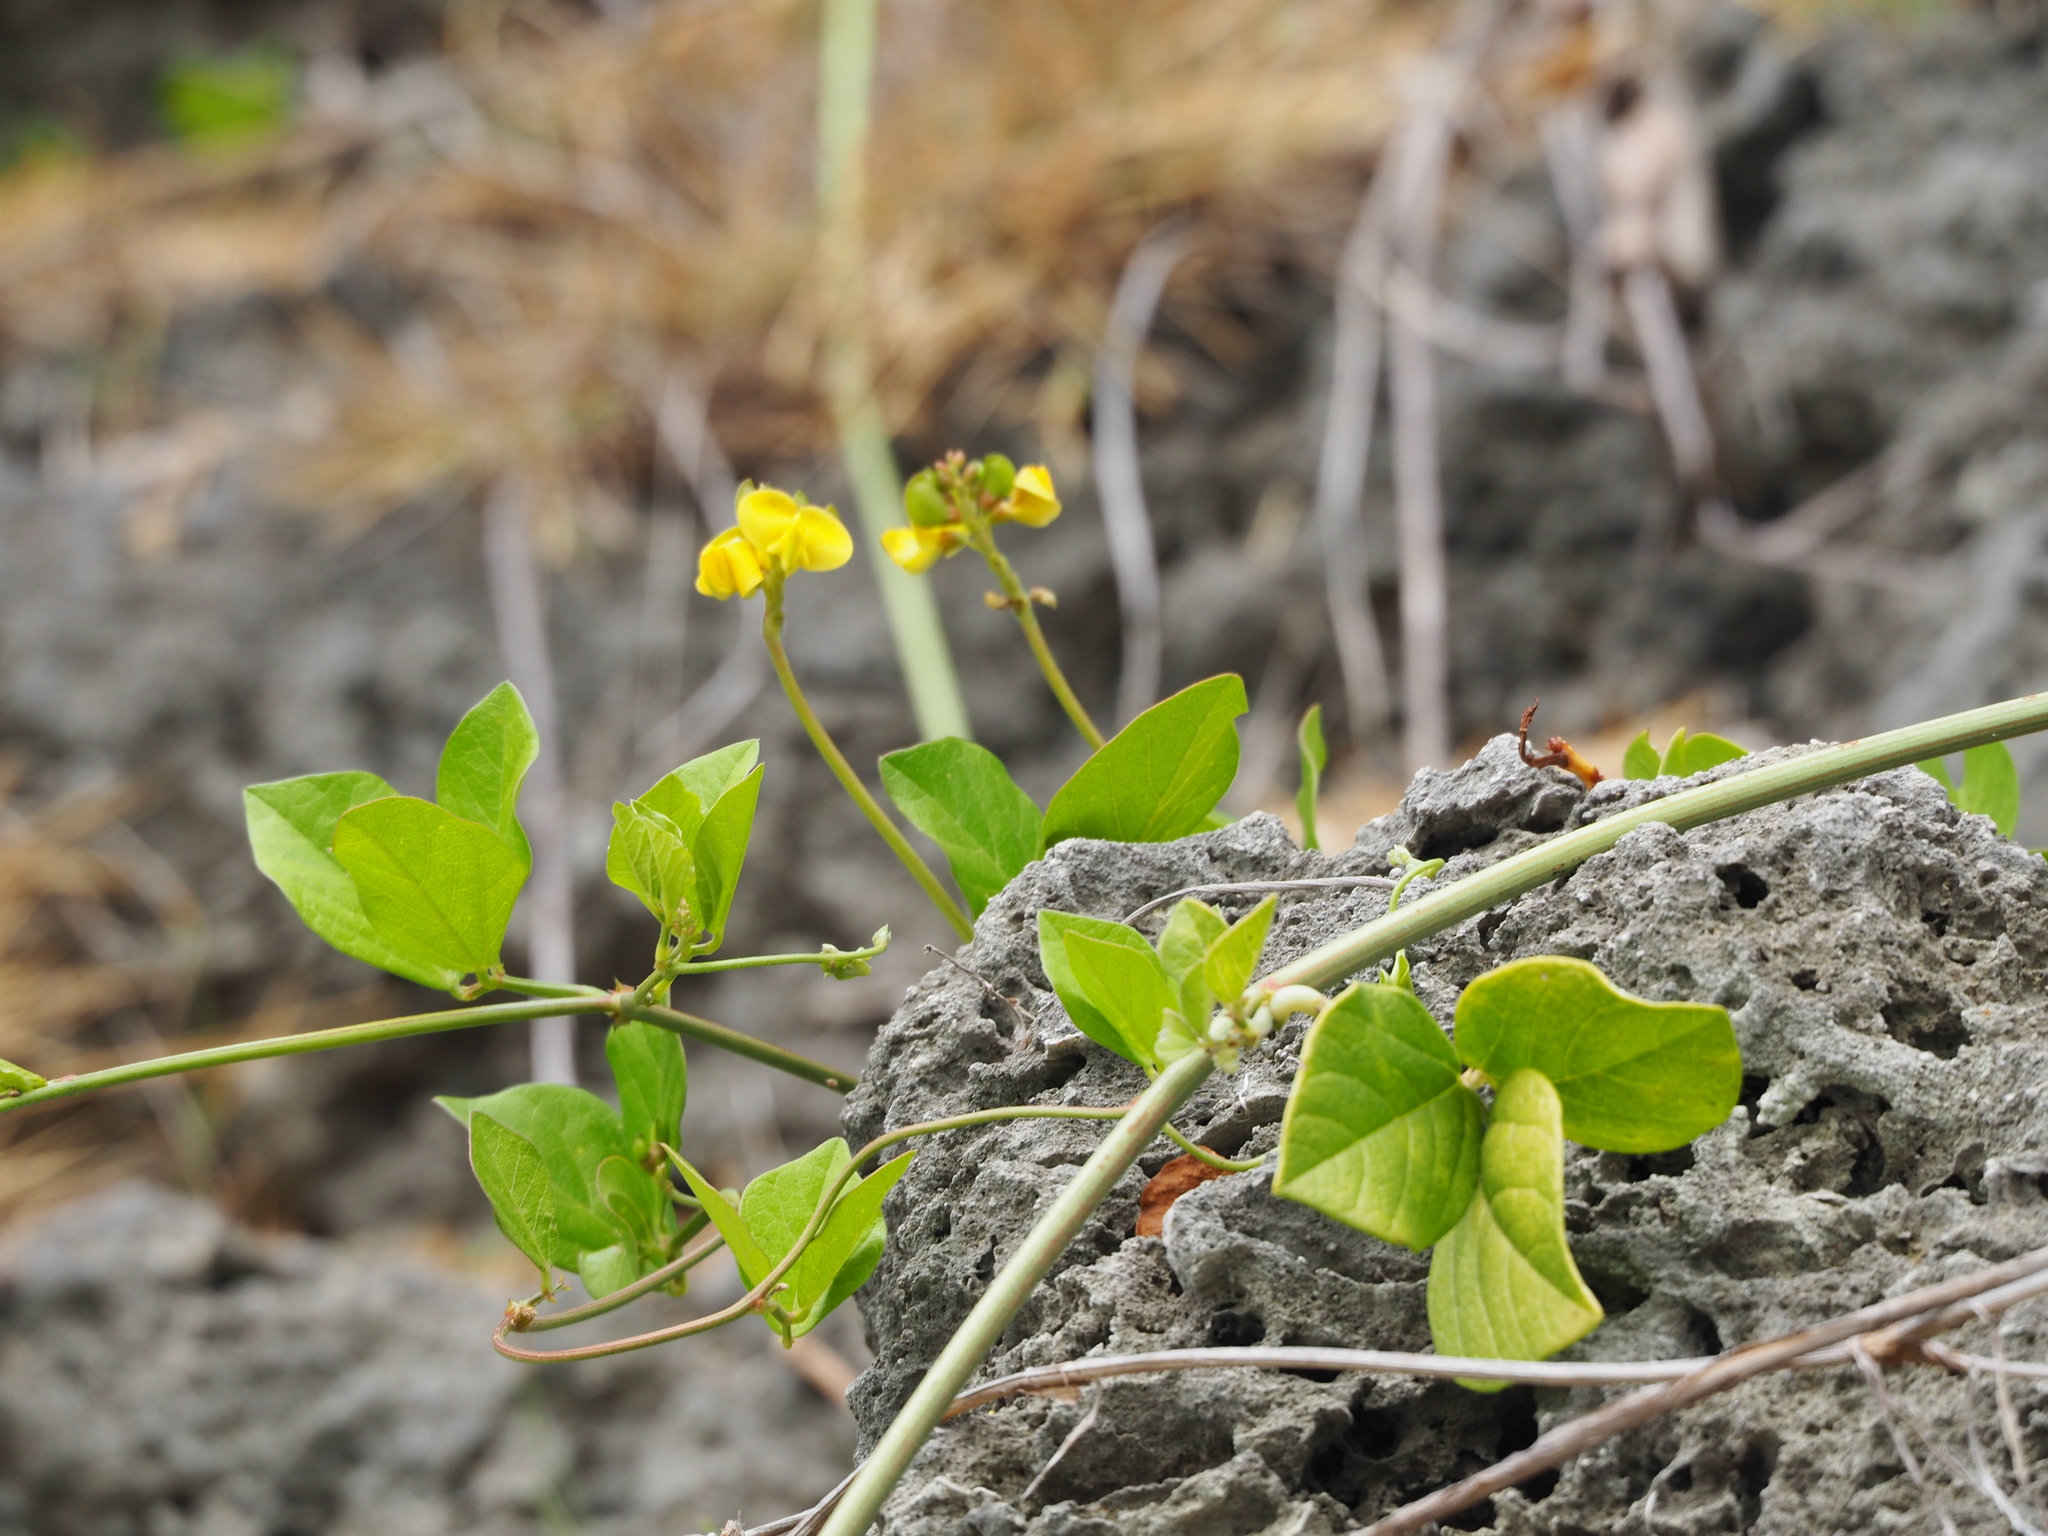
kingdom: Plantae
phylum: Tracheophyta
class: Magnoliopsida
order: Fabales
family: Fabaceae
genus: Vigna
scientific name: Vigna marina
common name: Dune-bean
